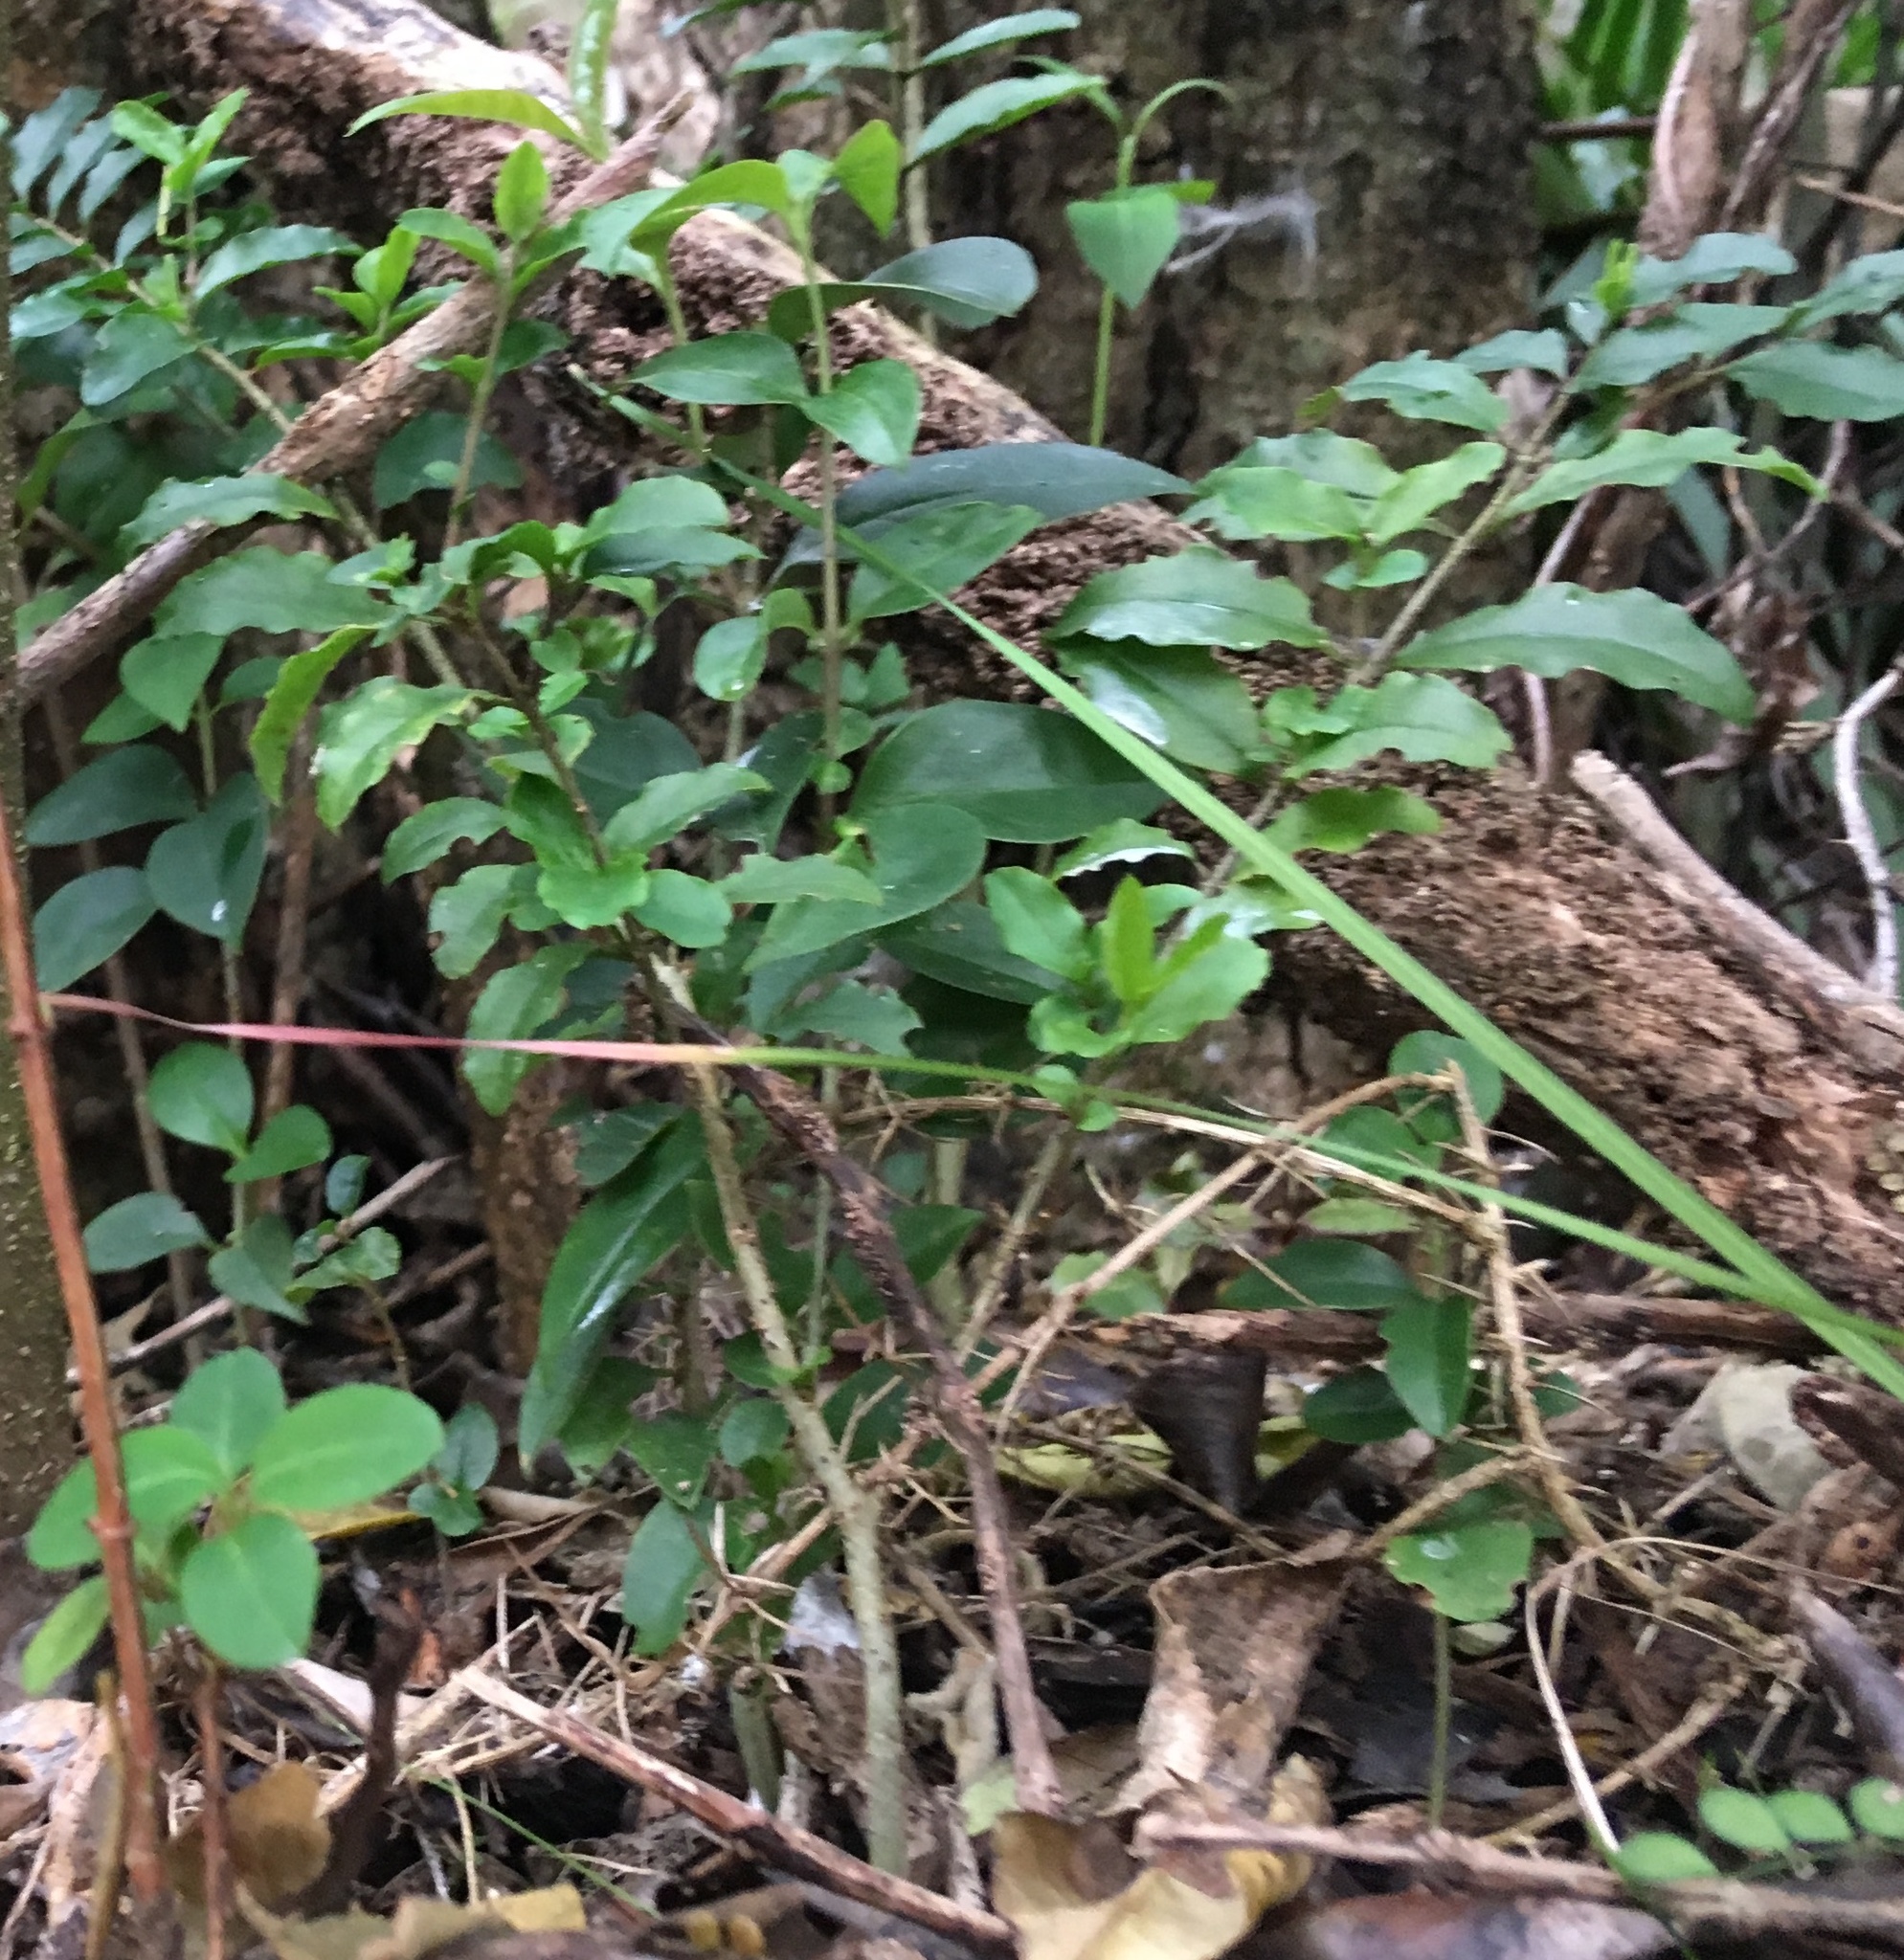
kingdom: Plantae
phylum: Tracheophyta
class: Magnoliopsida
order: Lamiales
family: Oleaceae
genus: Ligustrum
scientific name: Ligustrum sinense
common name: Chinese privet
